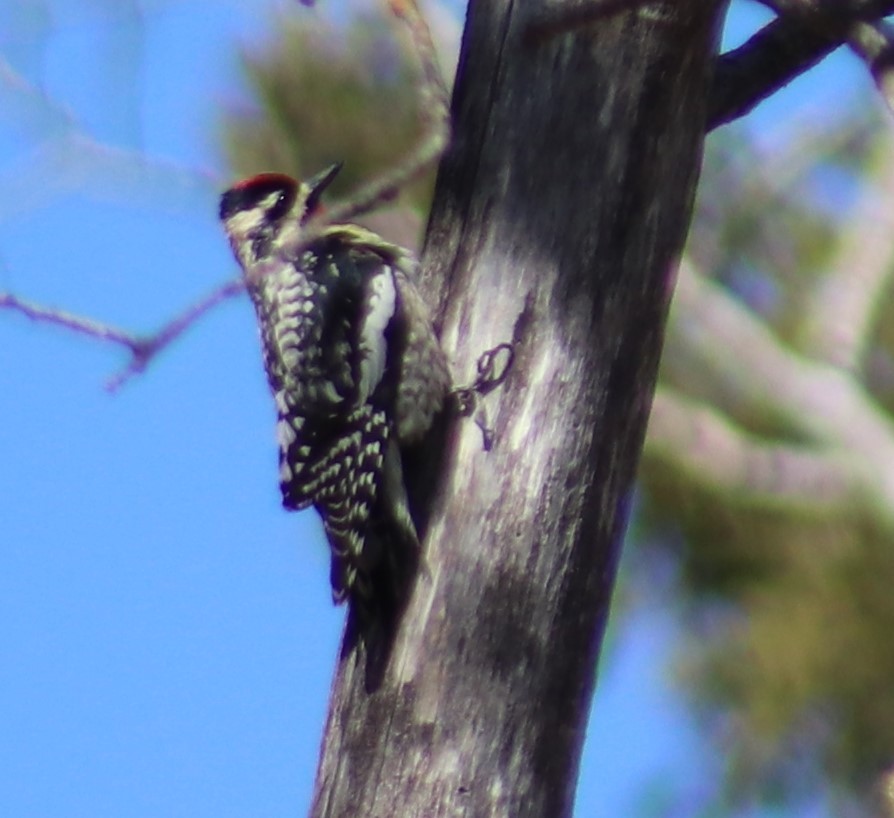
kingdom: Animalia
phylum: Chordata
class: Aves
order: Piciformes
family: Picidae
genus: Sphyrapicus
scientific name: Sphyrapicus varius
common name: Yellow-bellied sapsucker
